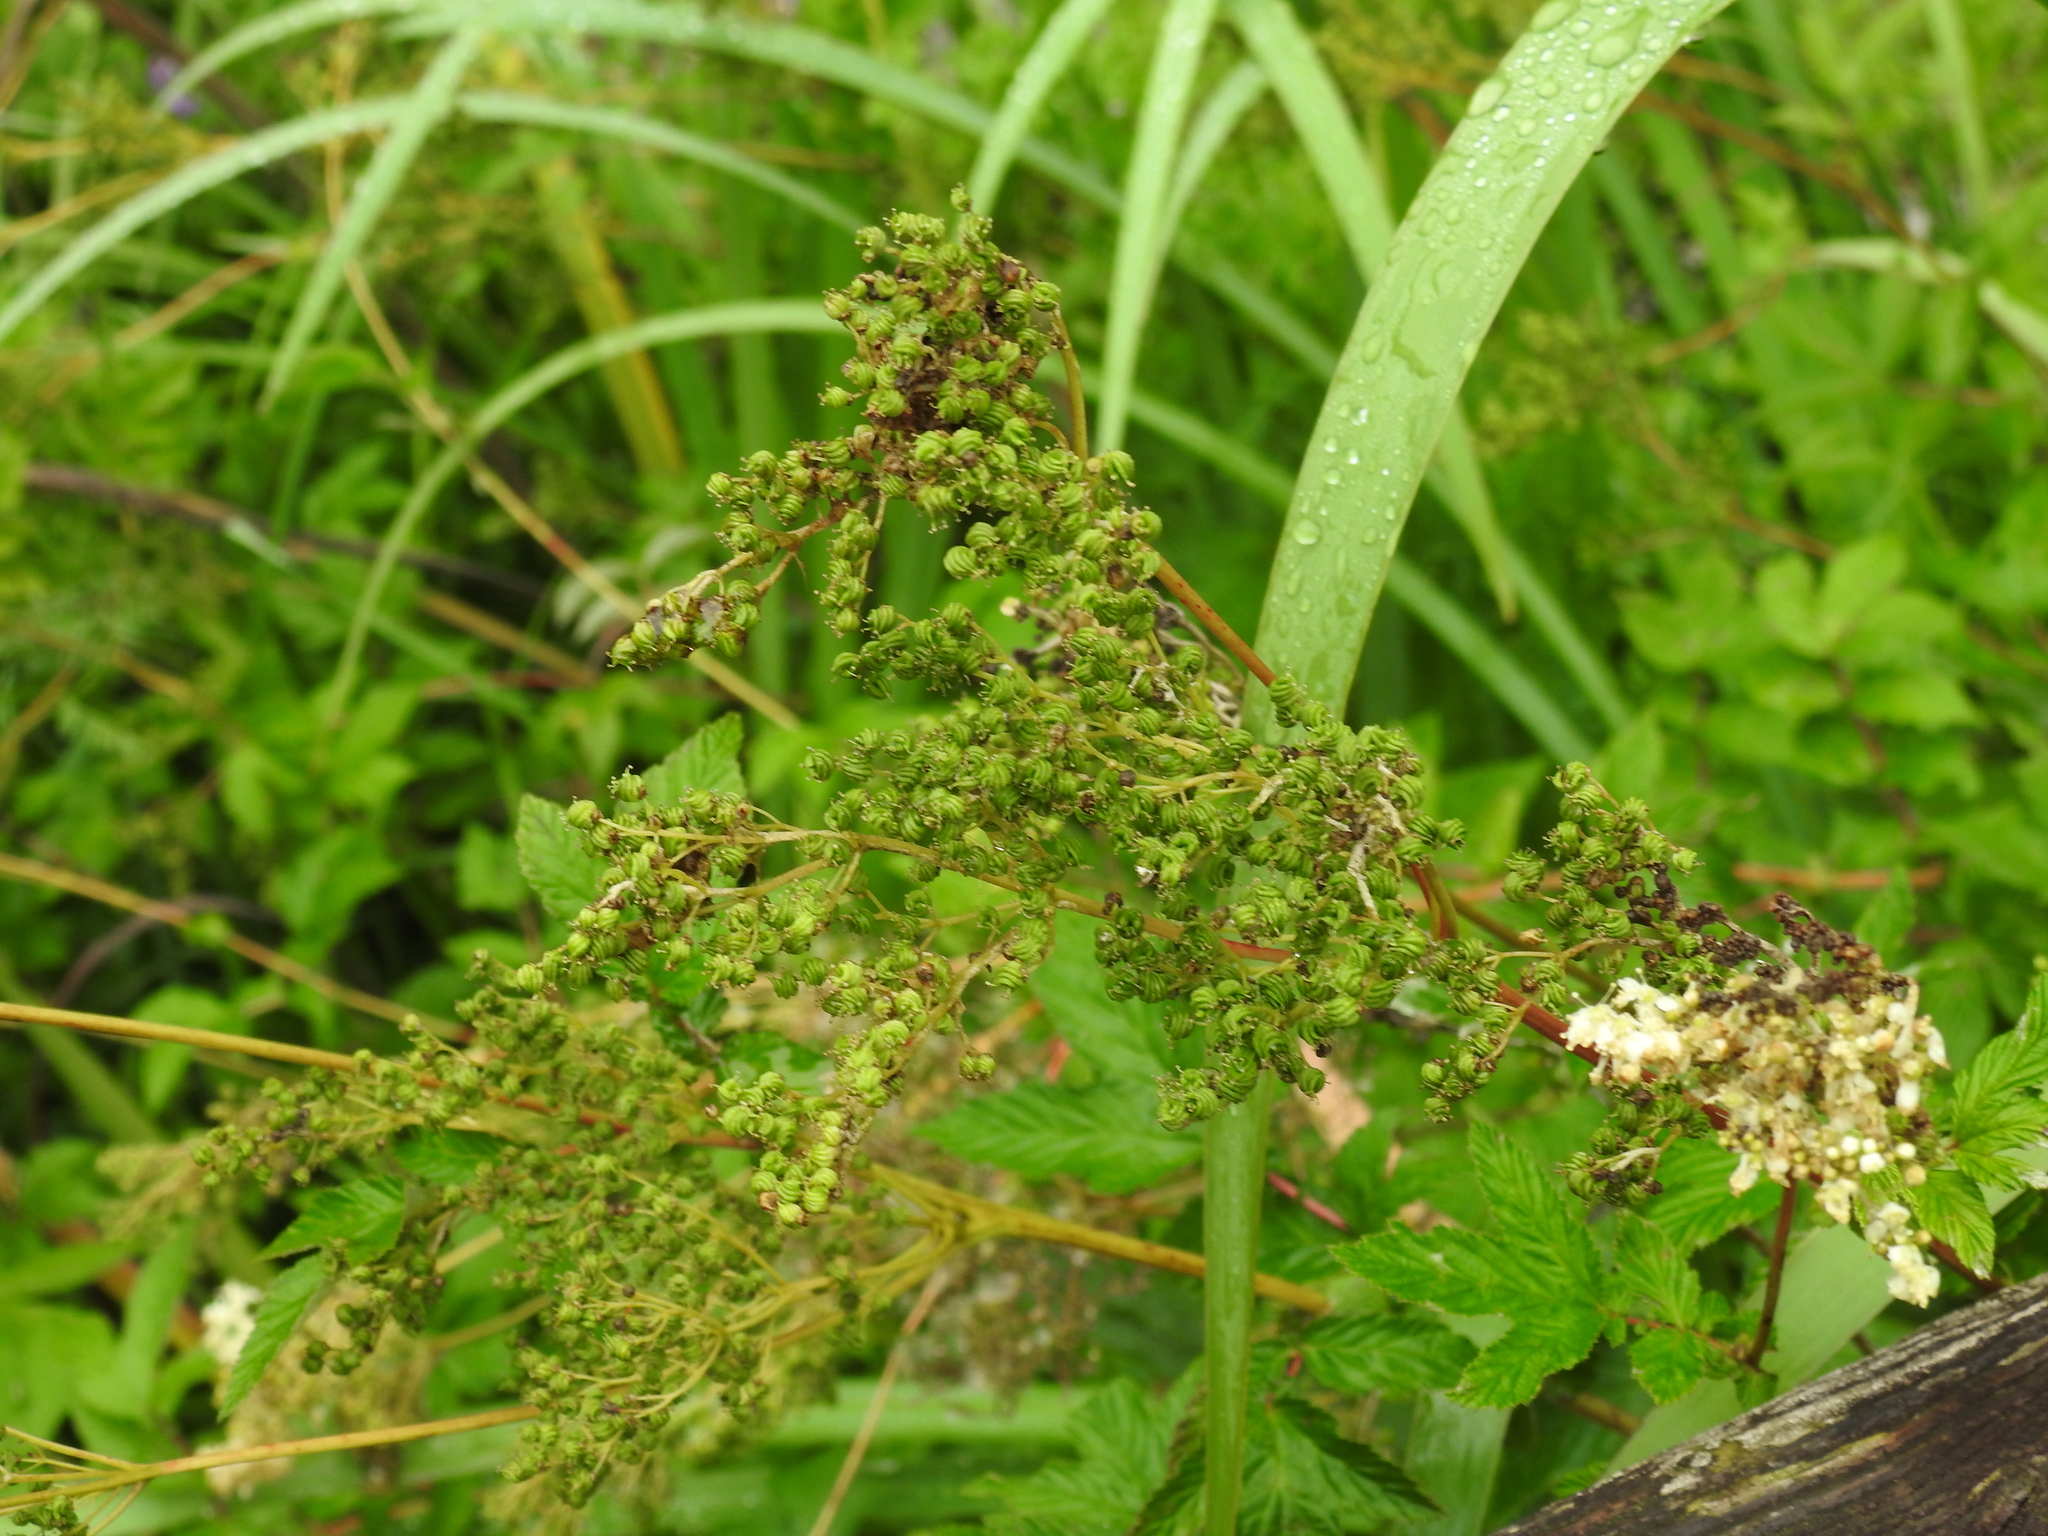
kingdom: Plantae
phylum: Tracheophyta
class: Magnoliopsida
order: Rosales
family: Rosaceae
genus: Filipendula
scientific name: Filipendula ulmaria
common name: Meadowsweet
